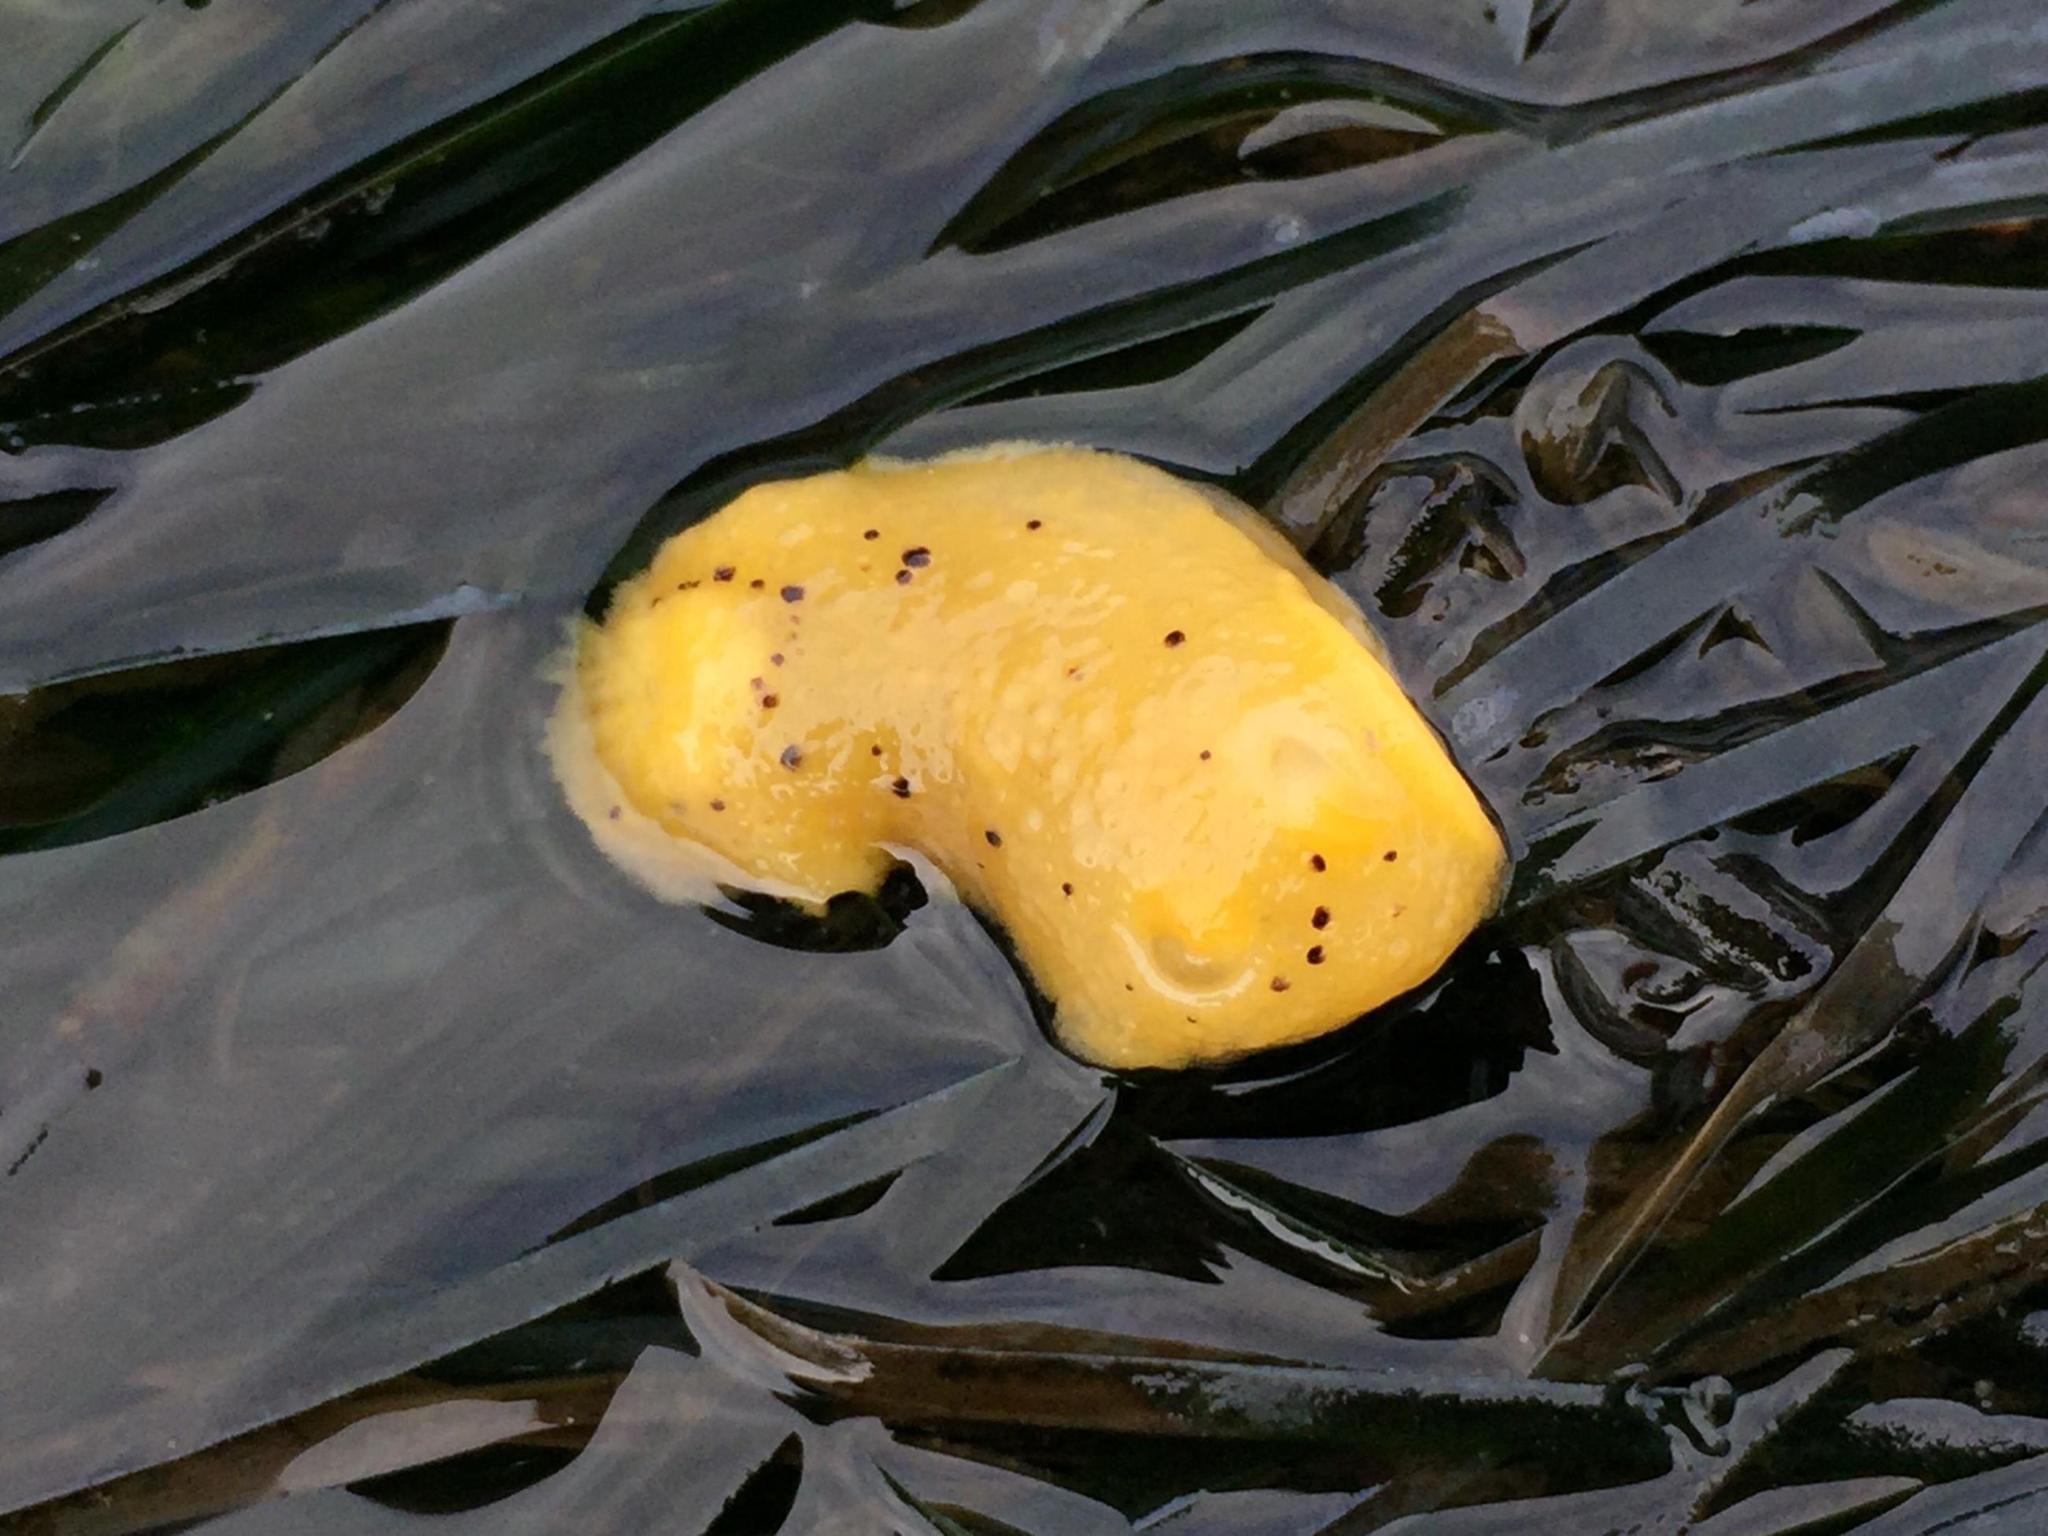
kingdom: Animalia
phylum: Mollusca
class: Gastropoda
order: Nudibranchia
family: Dorididae
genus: Doris
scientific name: Doris montereyensis
